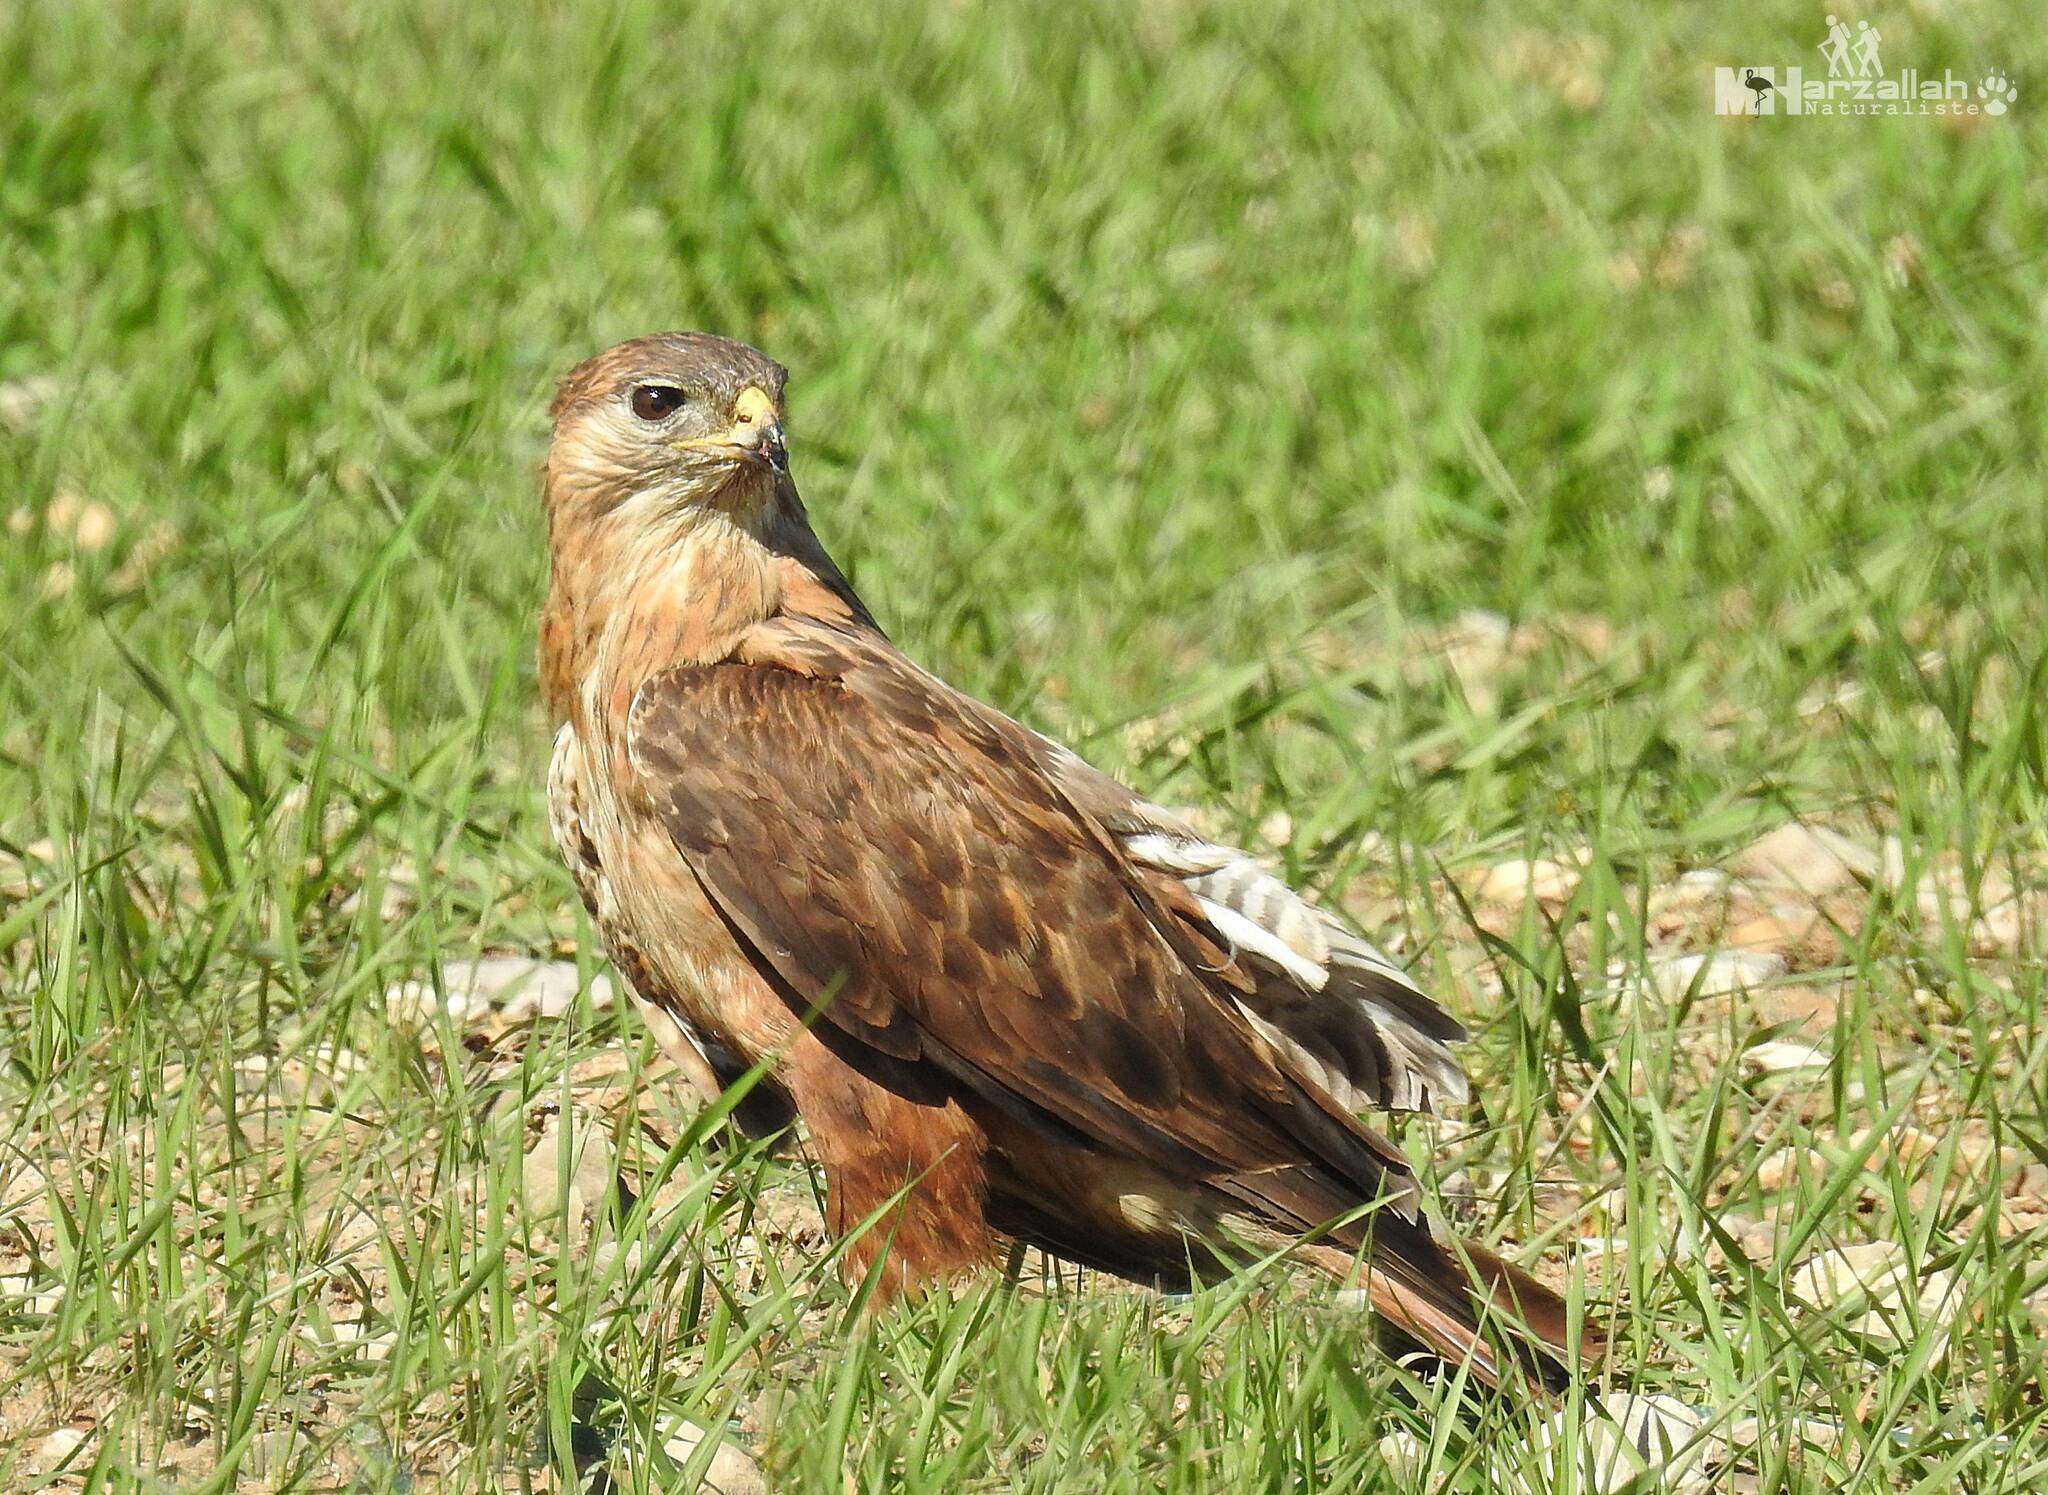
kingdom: Animalia
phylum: Chordata
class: Aves
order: Accipitriformes
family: Accipitridae
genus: Buteo
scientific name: Buteo rufinus
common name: Long-legged buzzard
